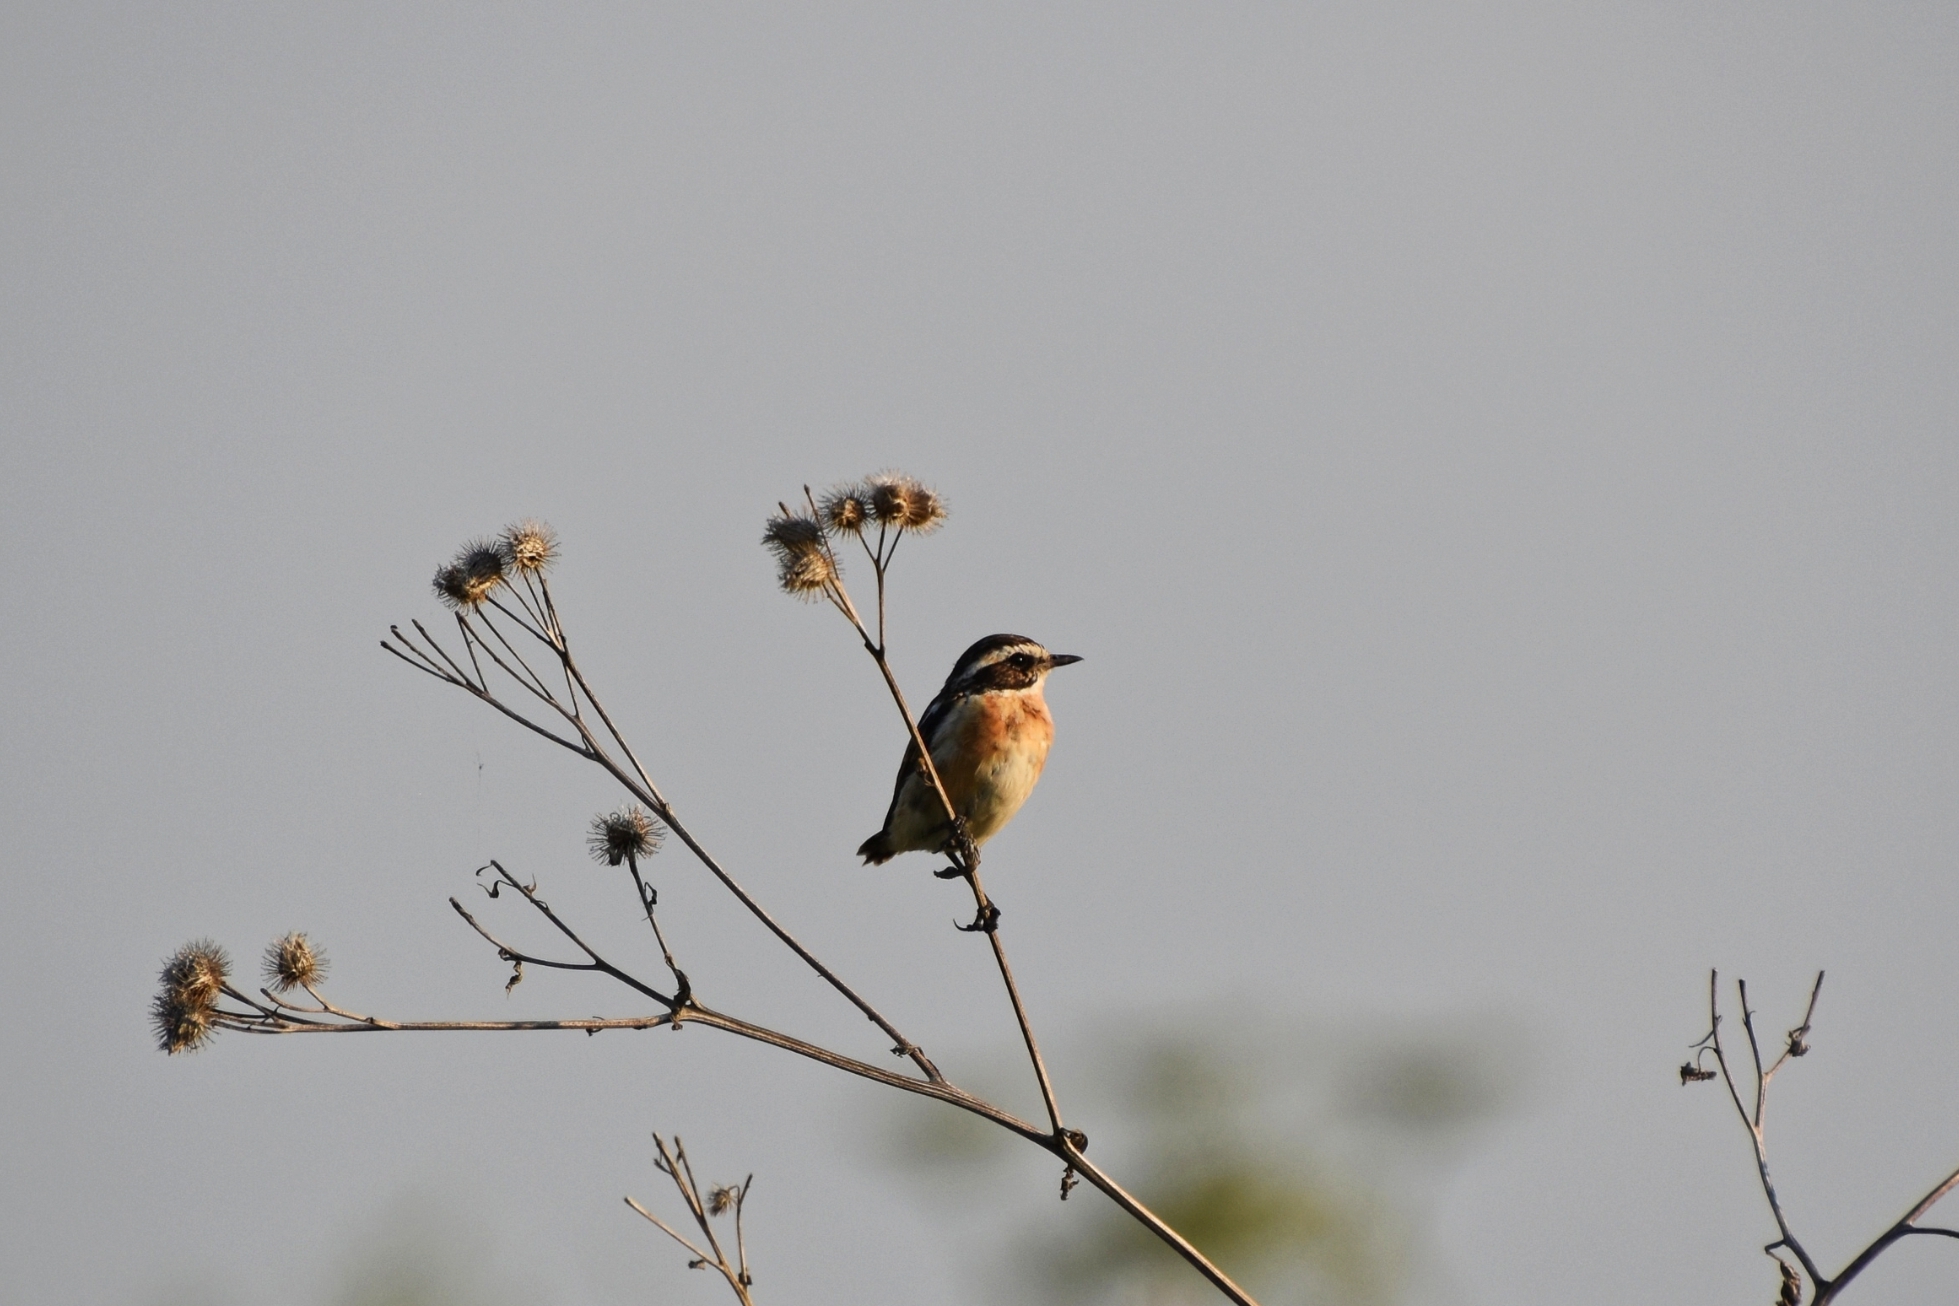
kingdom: Animalia
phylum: Chordata
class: Aves
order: Passeriformes
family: Muscicapidae
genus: Saxicola
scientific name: Saxicola rubetra
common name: Whinchat
